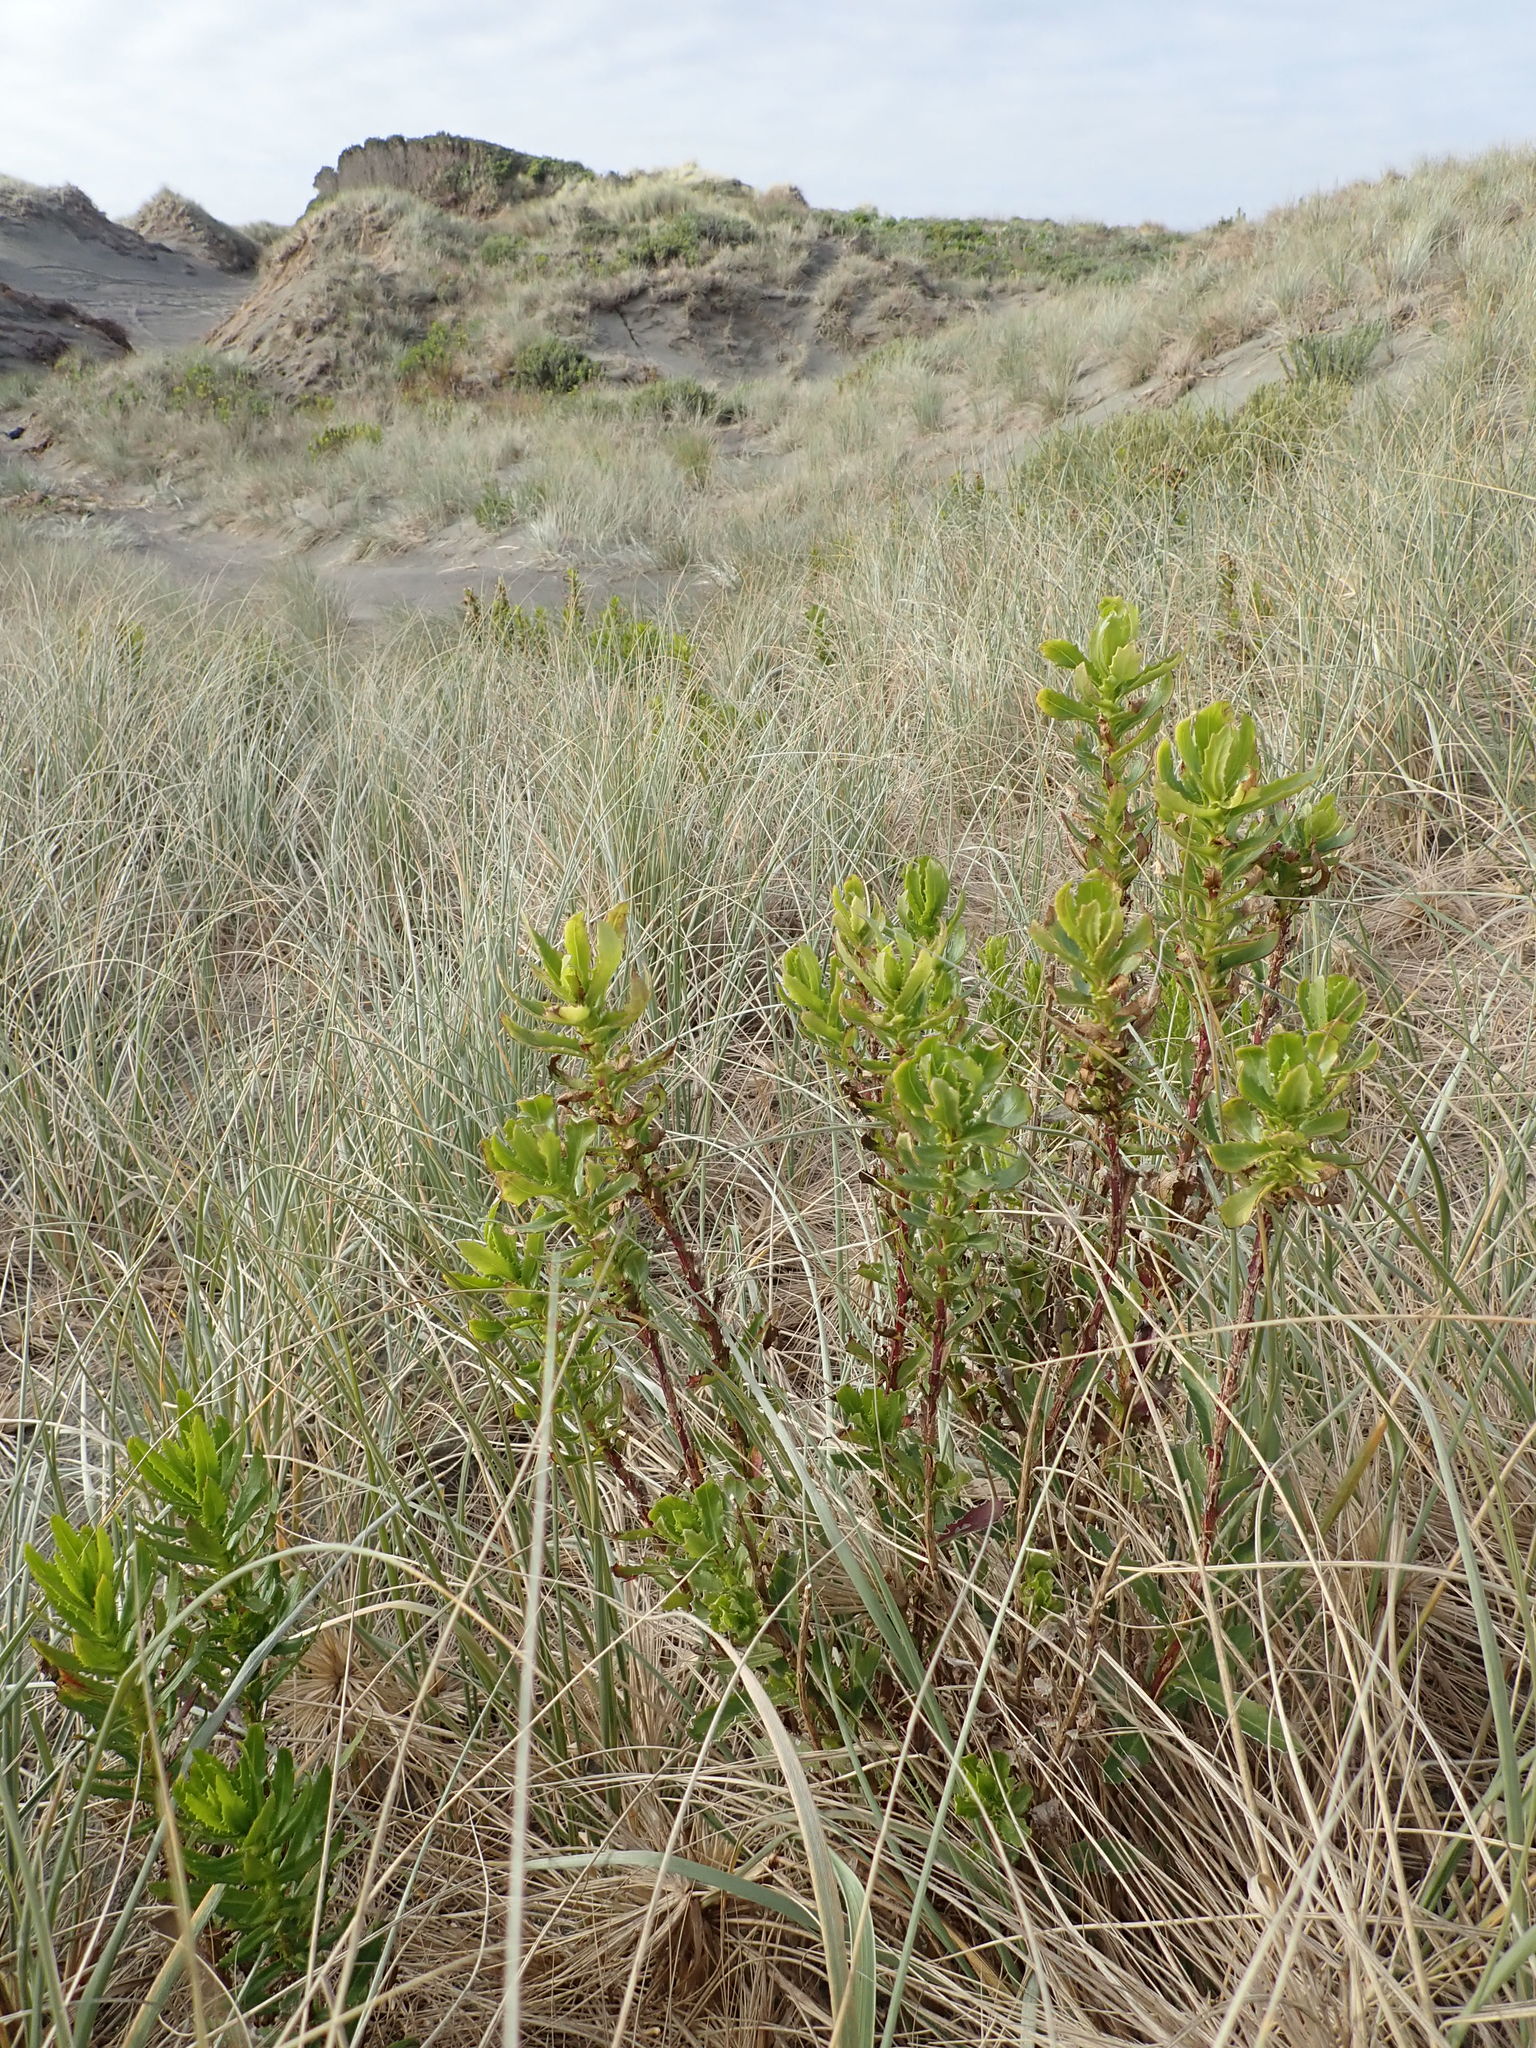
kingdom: Plantae
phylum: Tracheophyta
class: Magnoliopsida
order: Asterales
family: Asteraceae
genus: Senecio
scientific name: Senecio glastifolius
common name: Woad-leaved ragwort
